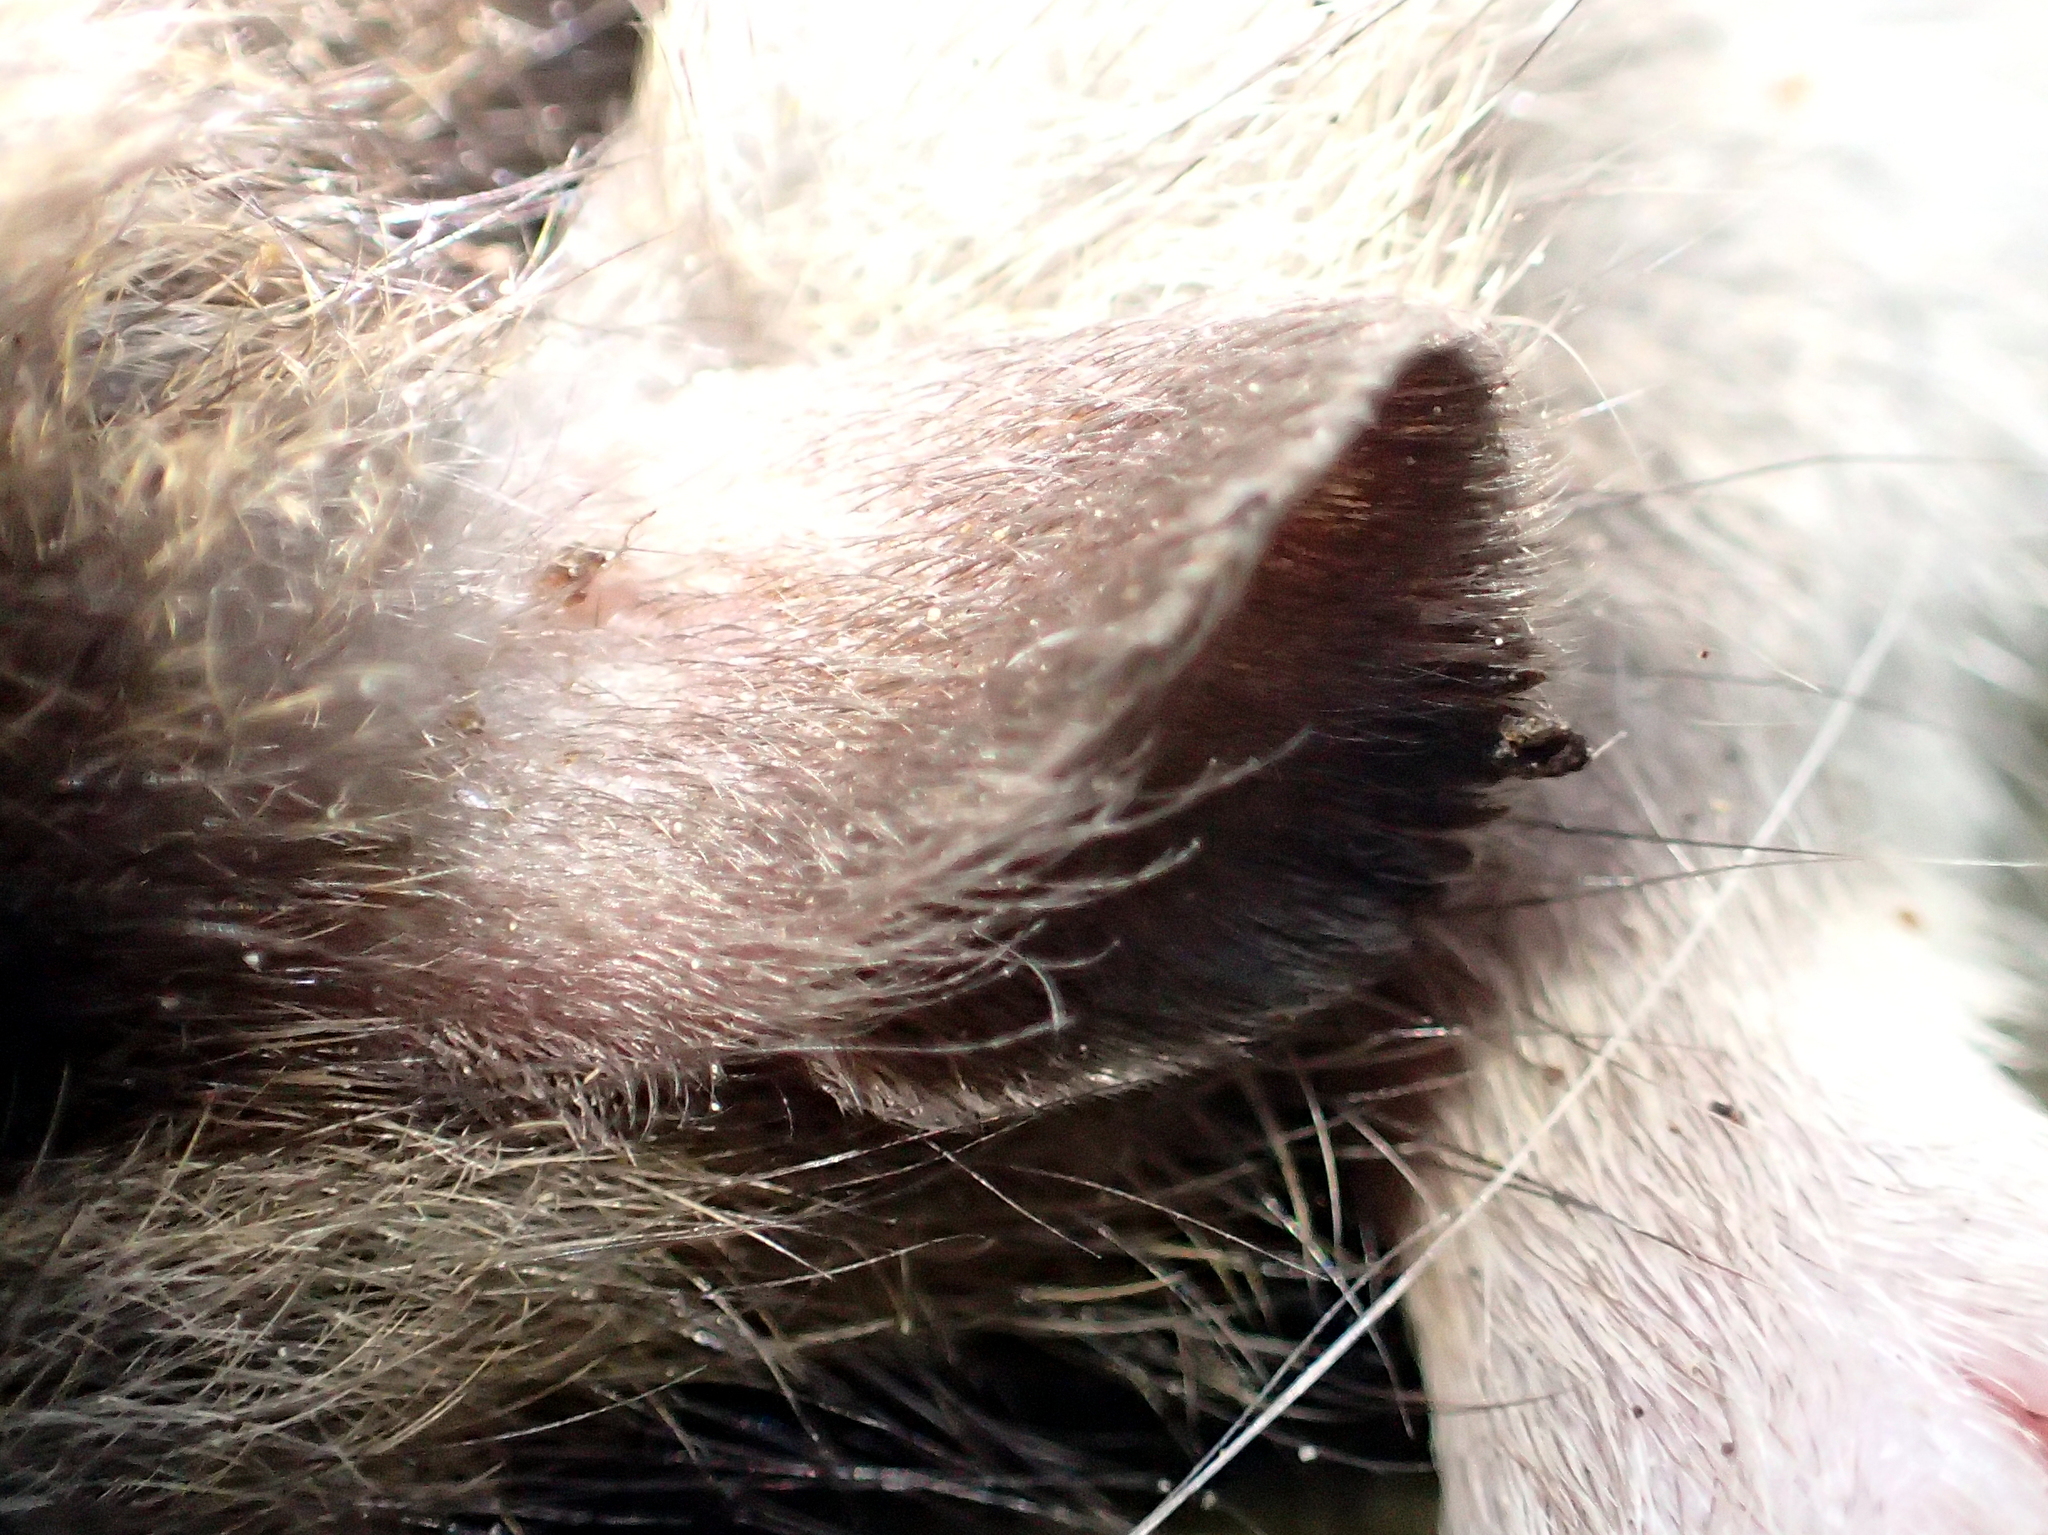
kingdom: Animalia
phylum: Chordata
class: Mammalia
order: Rodentia
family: Muridae
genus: Rattus
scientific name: Rattus norvegicus
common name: Brown rat
